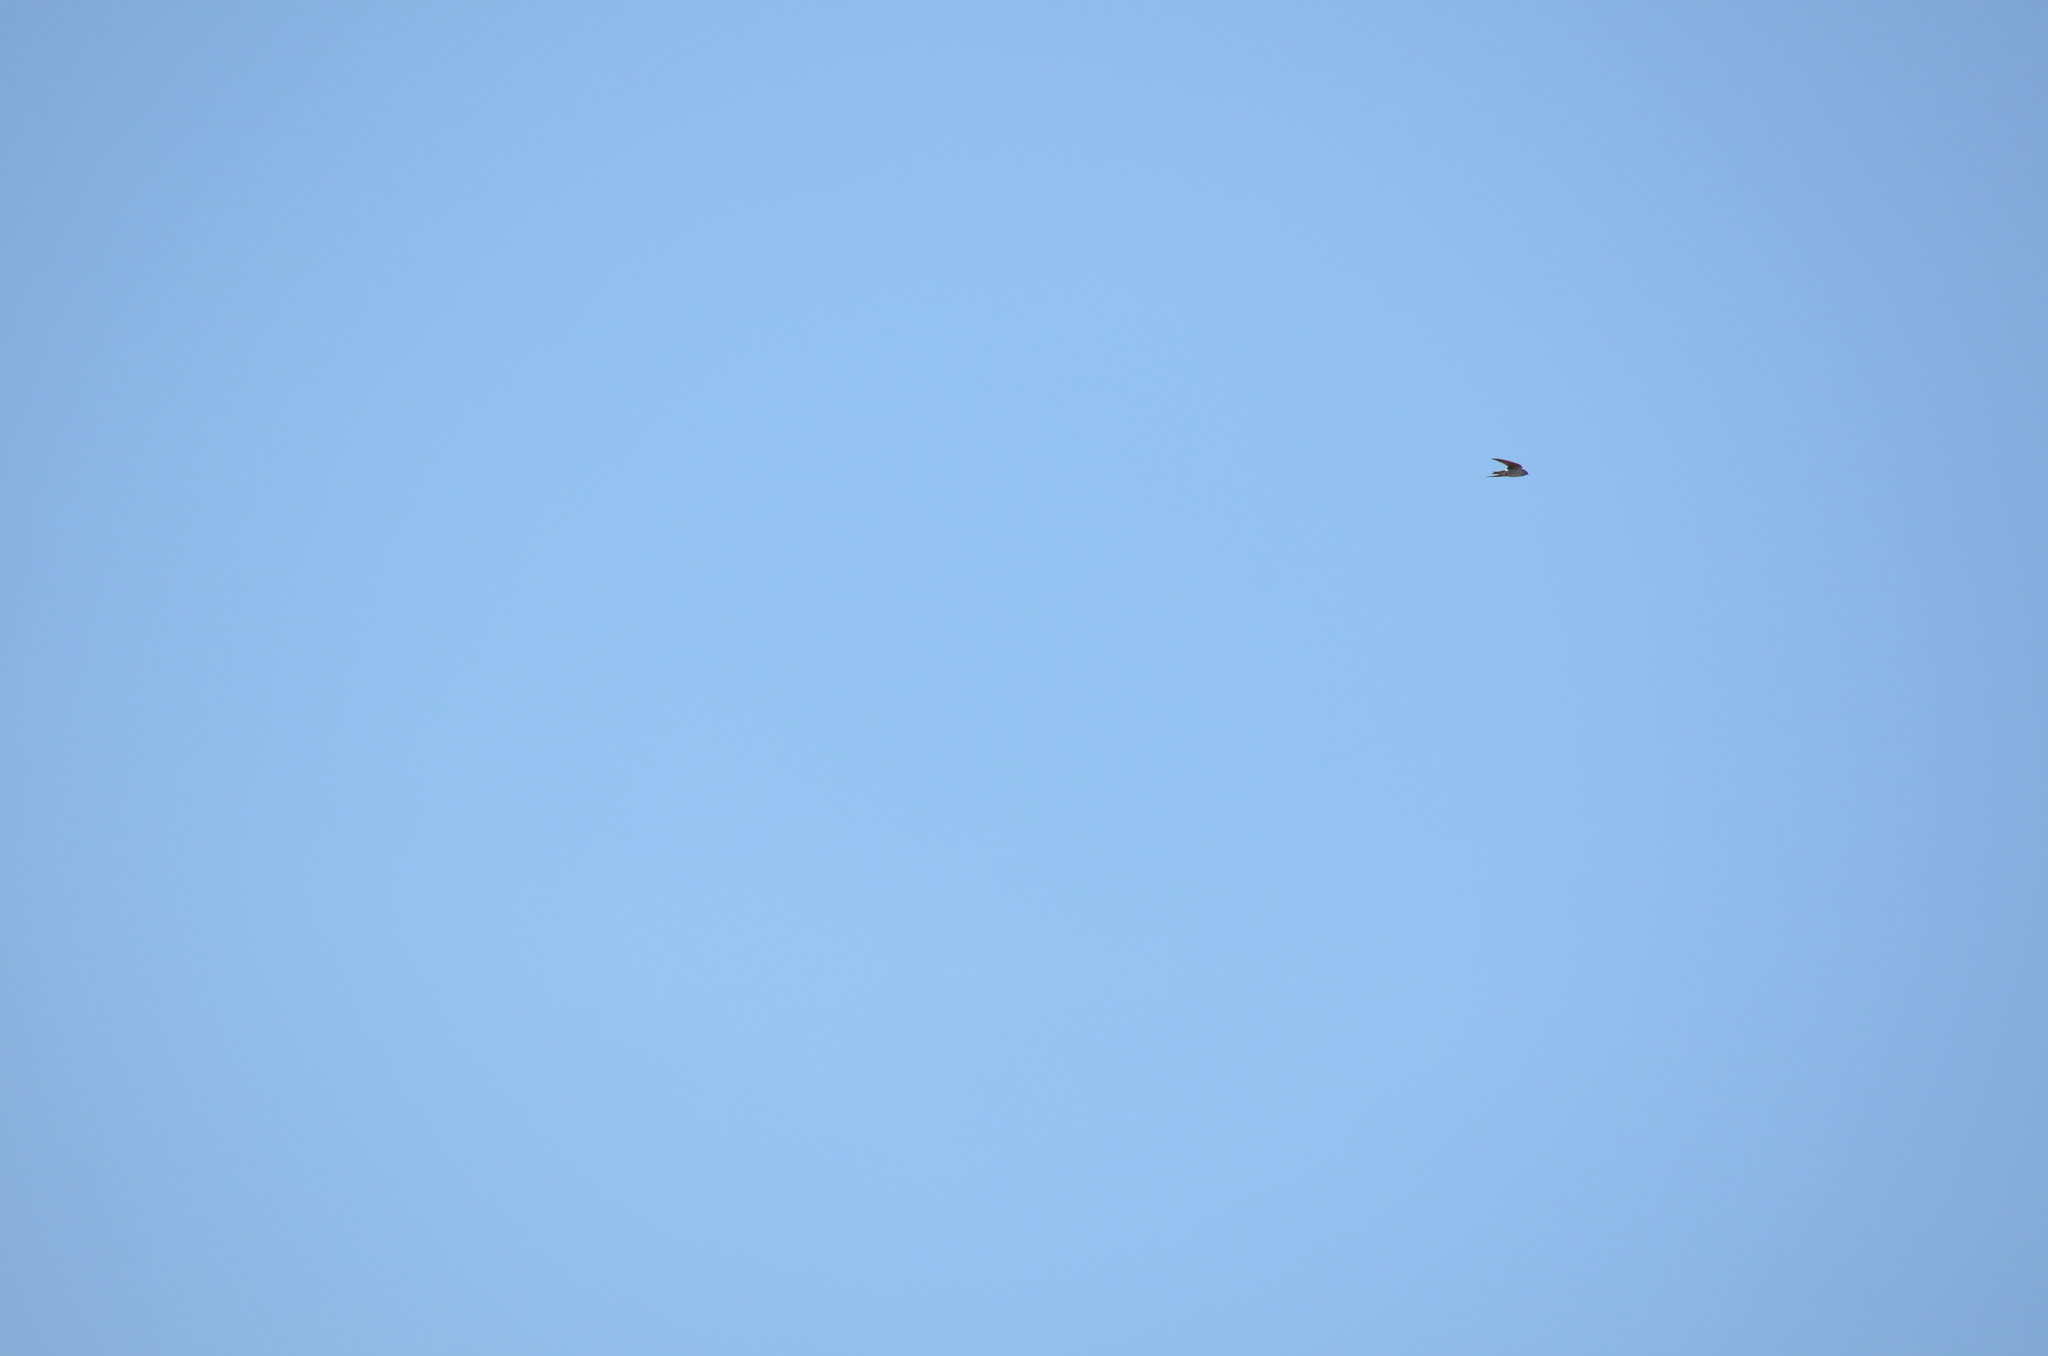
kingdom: Animalia
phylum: Chordata
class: Aves
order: Passeriformes
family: Hirundinidae
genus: Tachycineta
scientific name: Tachycineta thalassina
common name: Violet-green swallow
